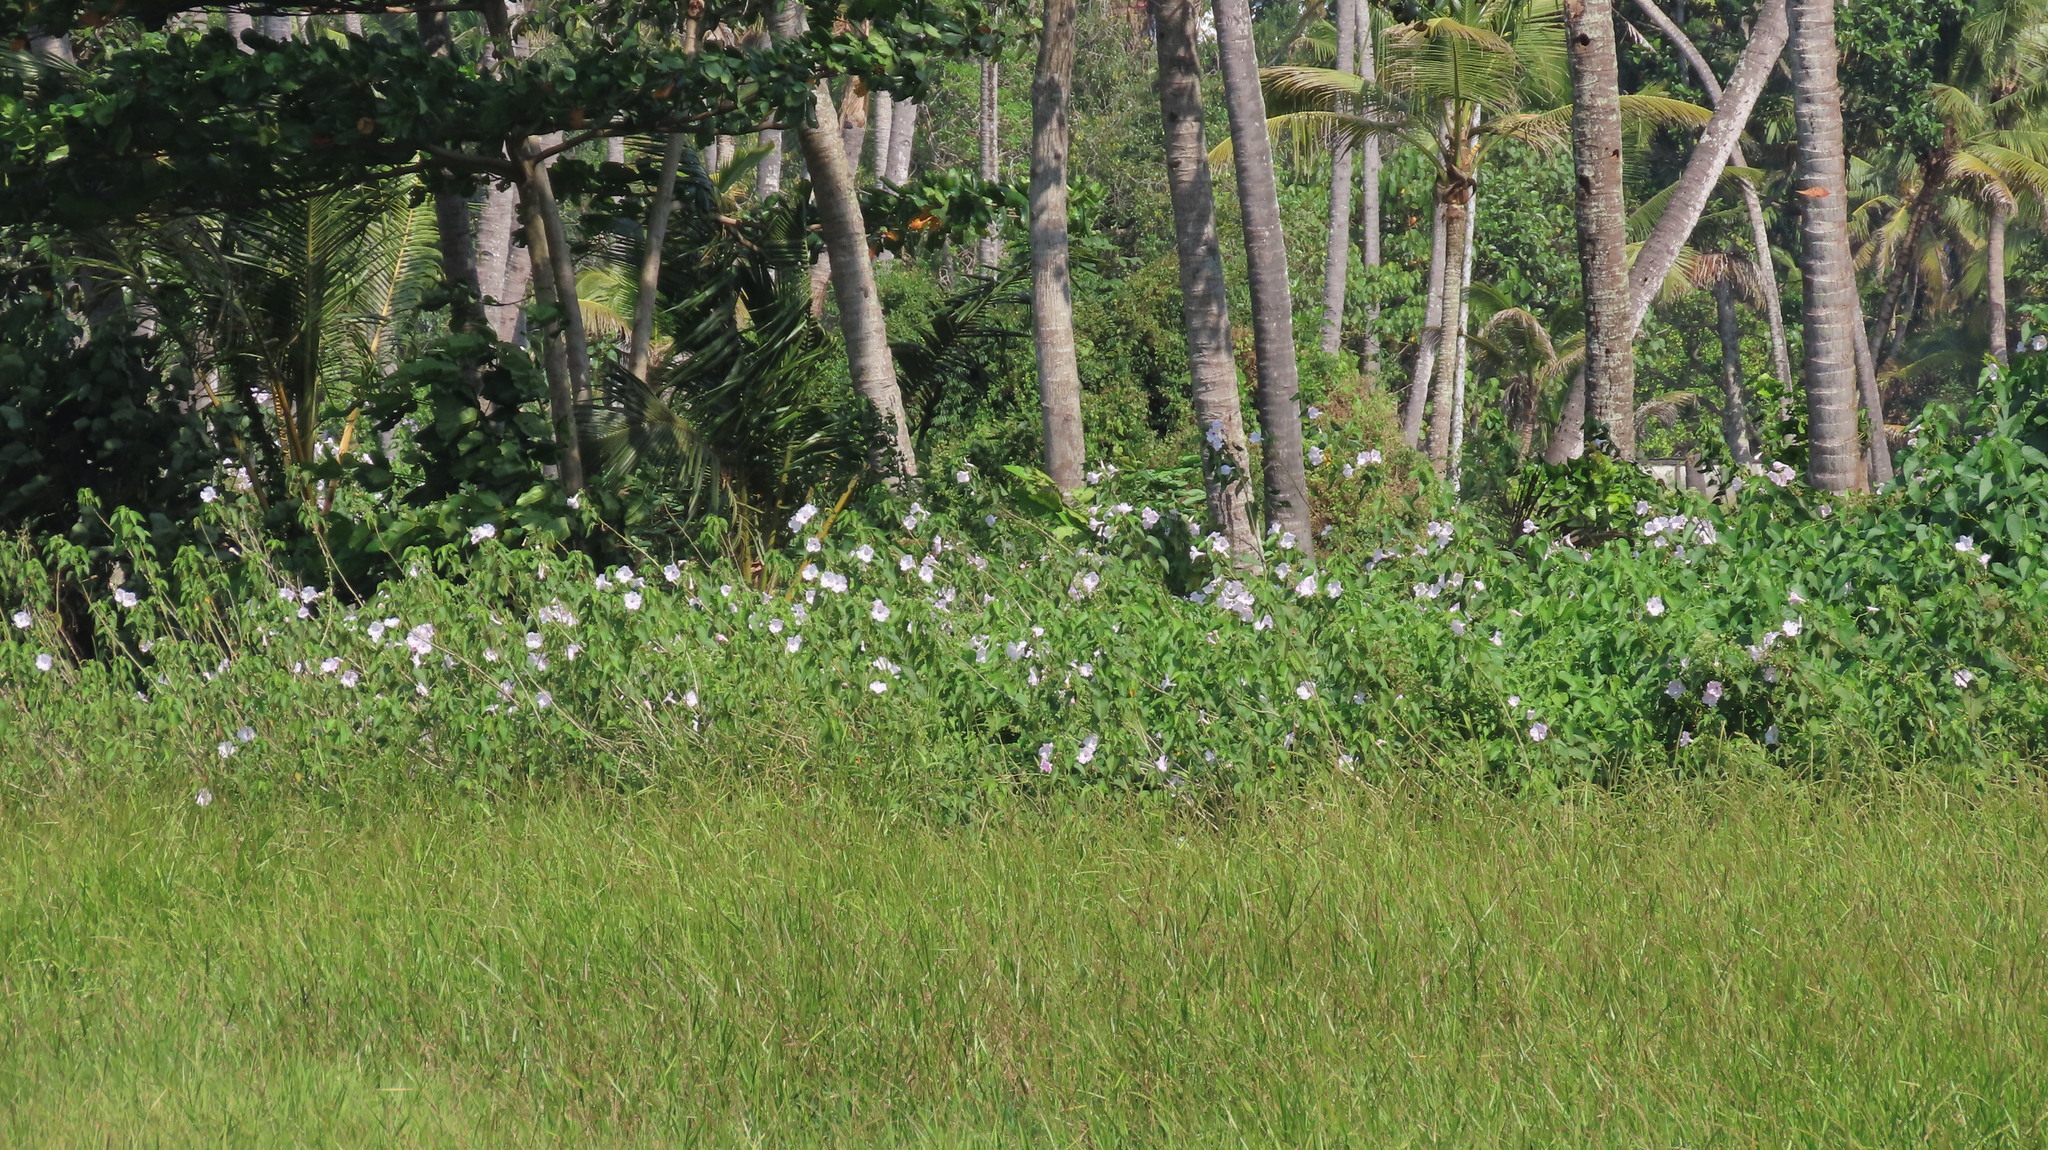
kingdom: Plantae
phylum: Tracheophyta
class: Magnoliopsida
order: Solanales
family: Convolvulaceae
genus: Ipomoea
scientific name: Ipomoea carnea
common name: Morning-glory
